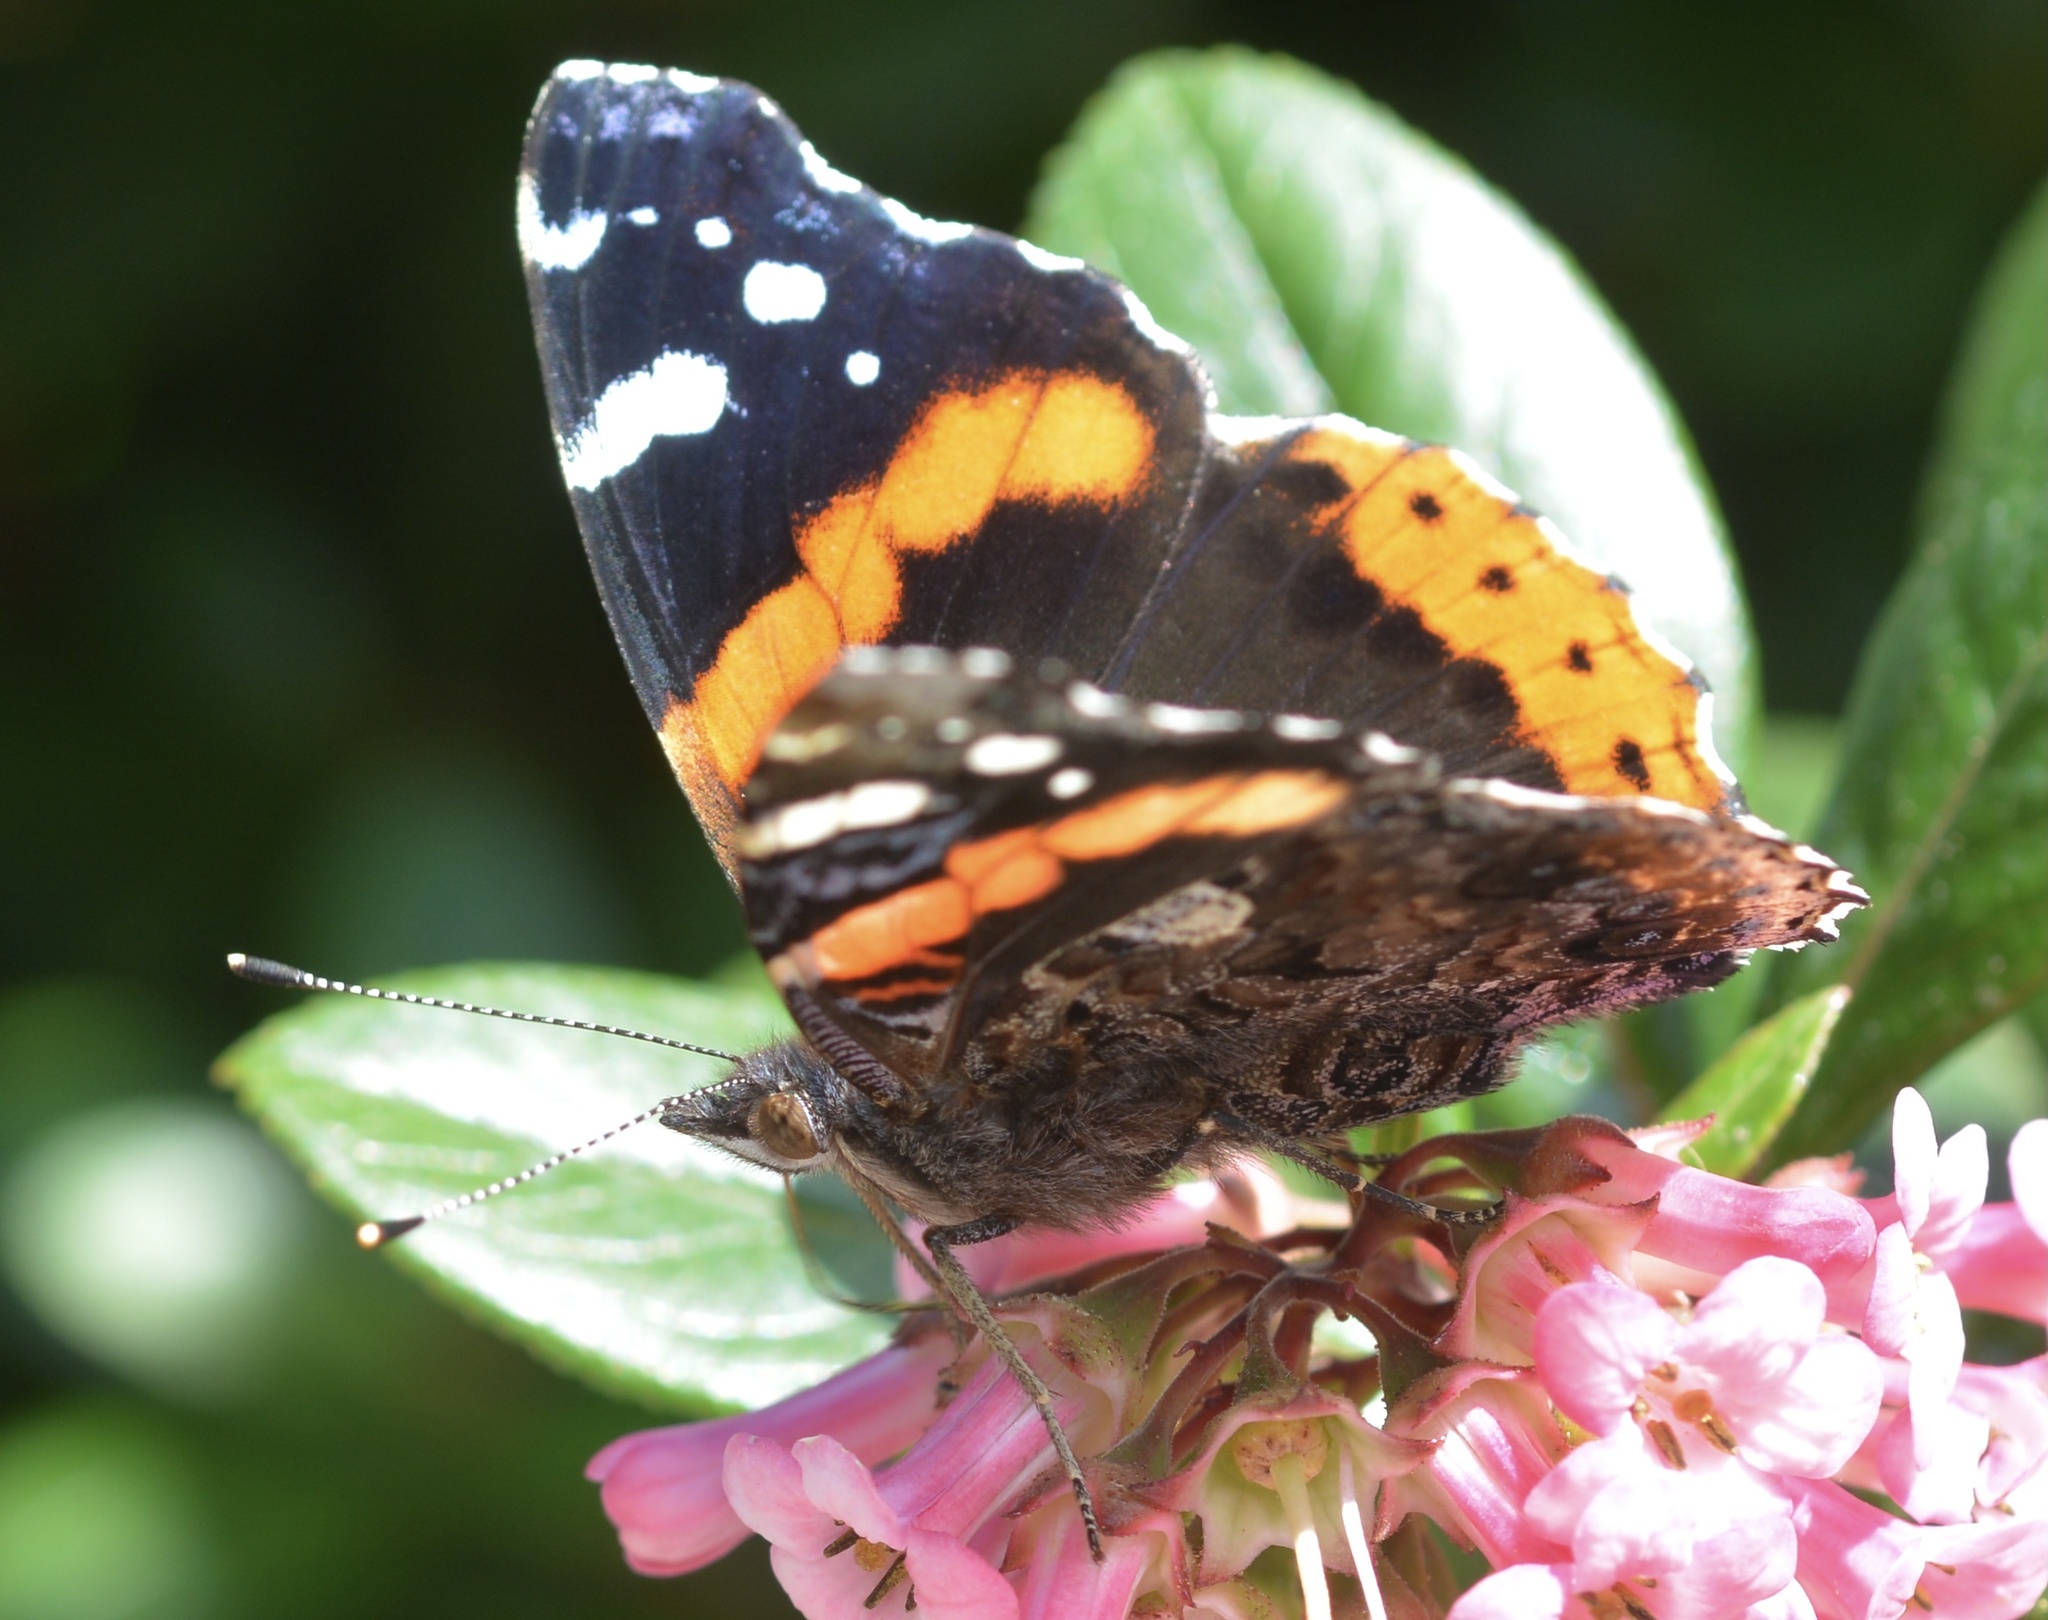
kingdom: Animalia
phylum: Arthropoda
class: Insecta
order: Lepidoptera
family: Nymphalidae
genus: Vanessa
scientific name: Vanessa atalanta
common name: Red admiral
